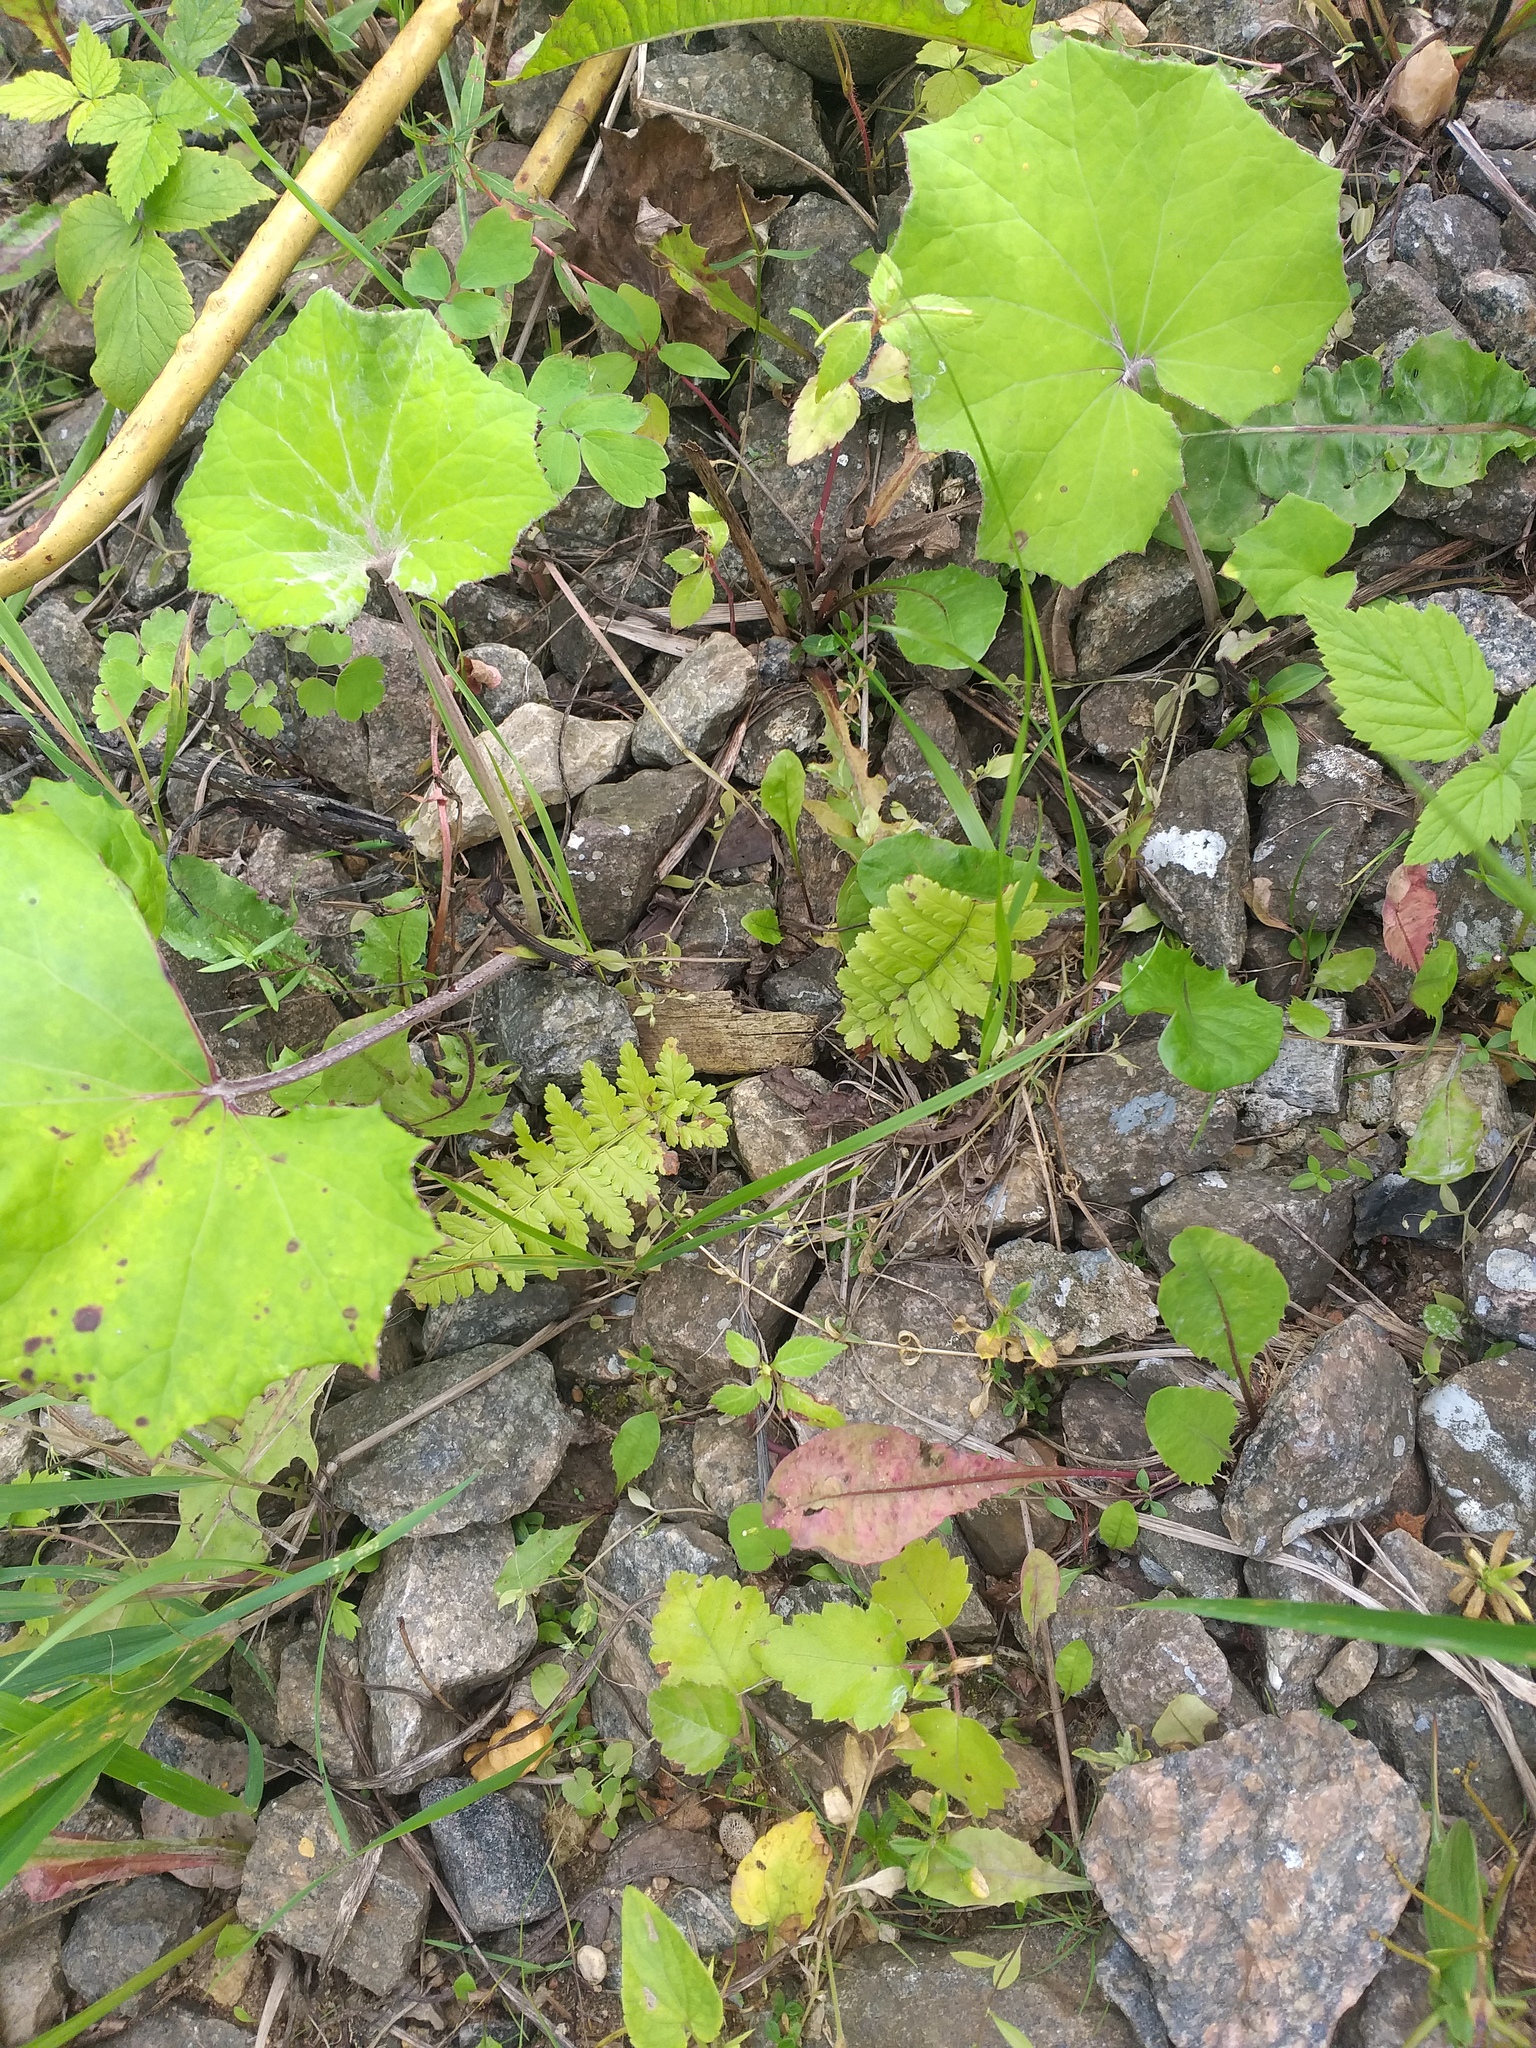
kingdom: Plantae
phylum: Tracheophyta
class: Polypodiopsida
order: Polypodiales
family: Dryopteridaceae
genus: Dryopteris
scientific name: Dryopteris filix-mas
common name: Male fern
